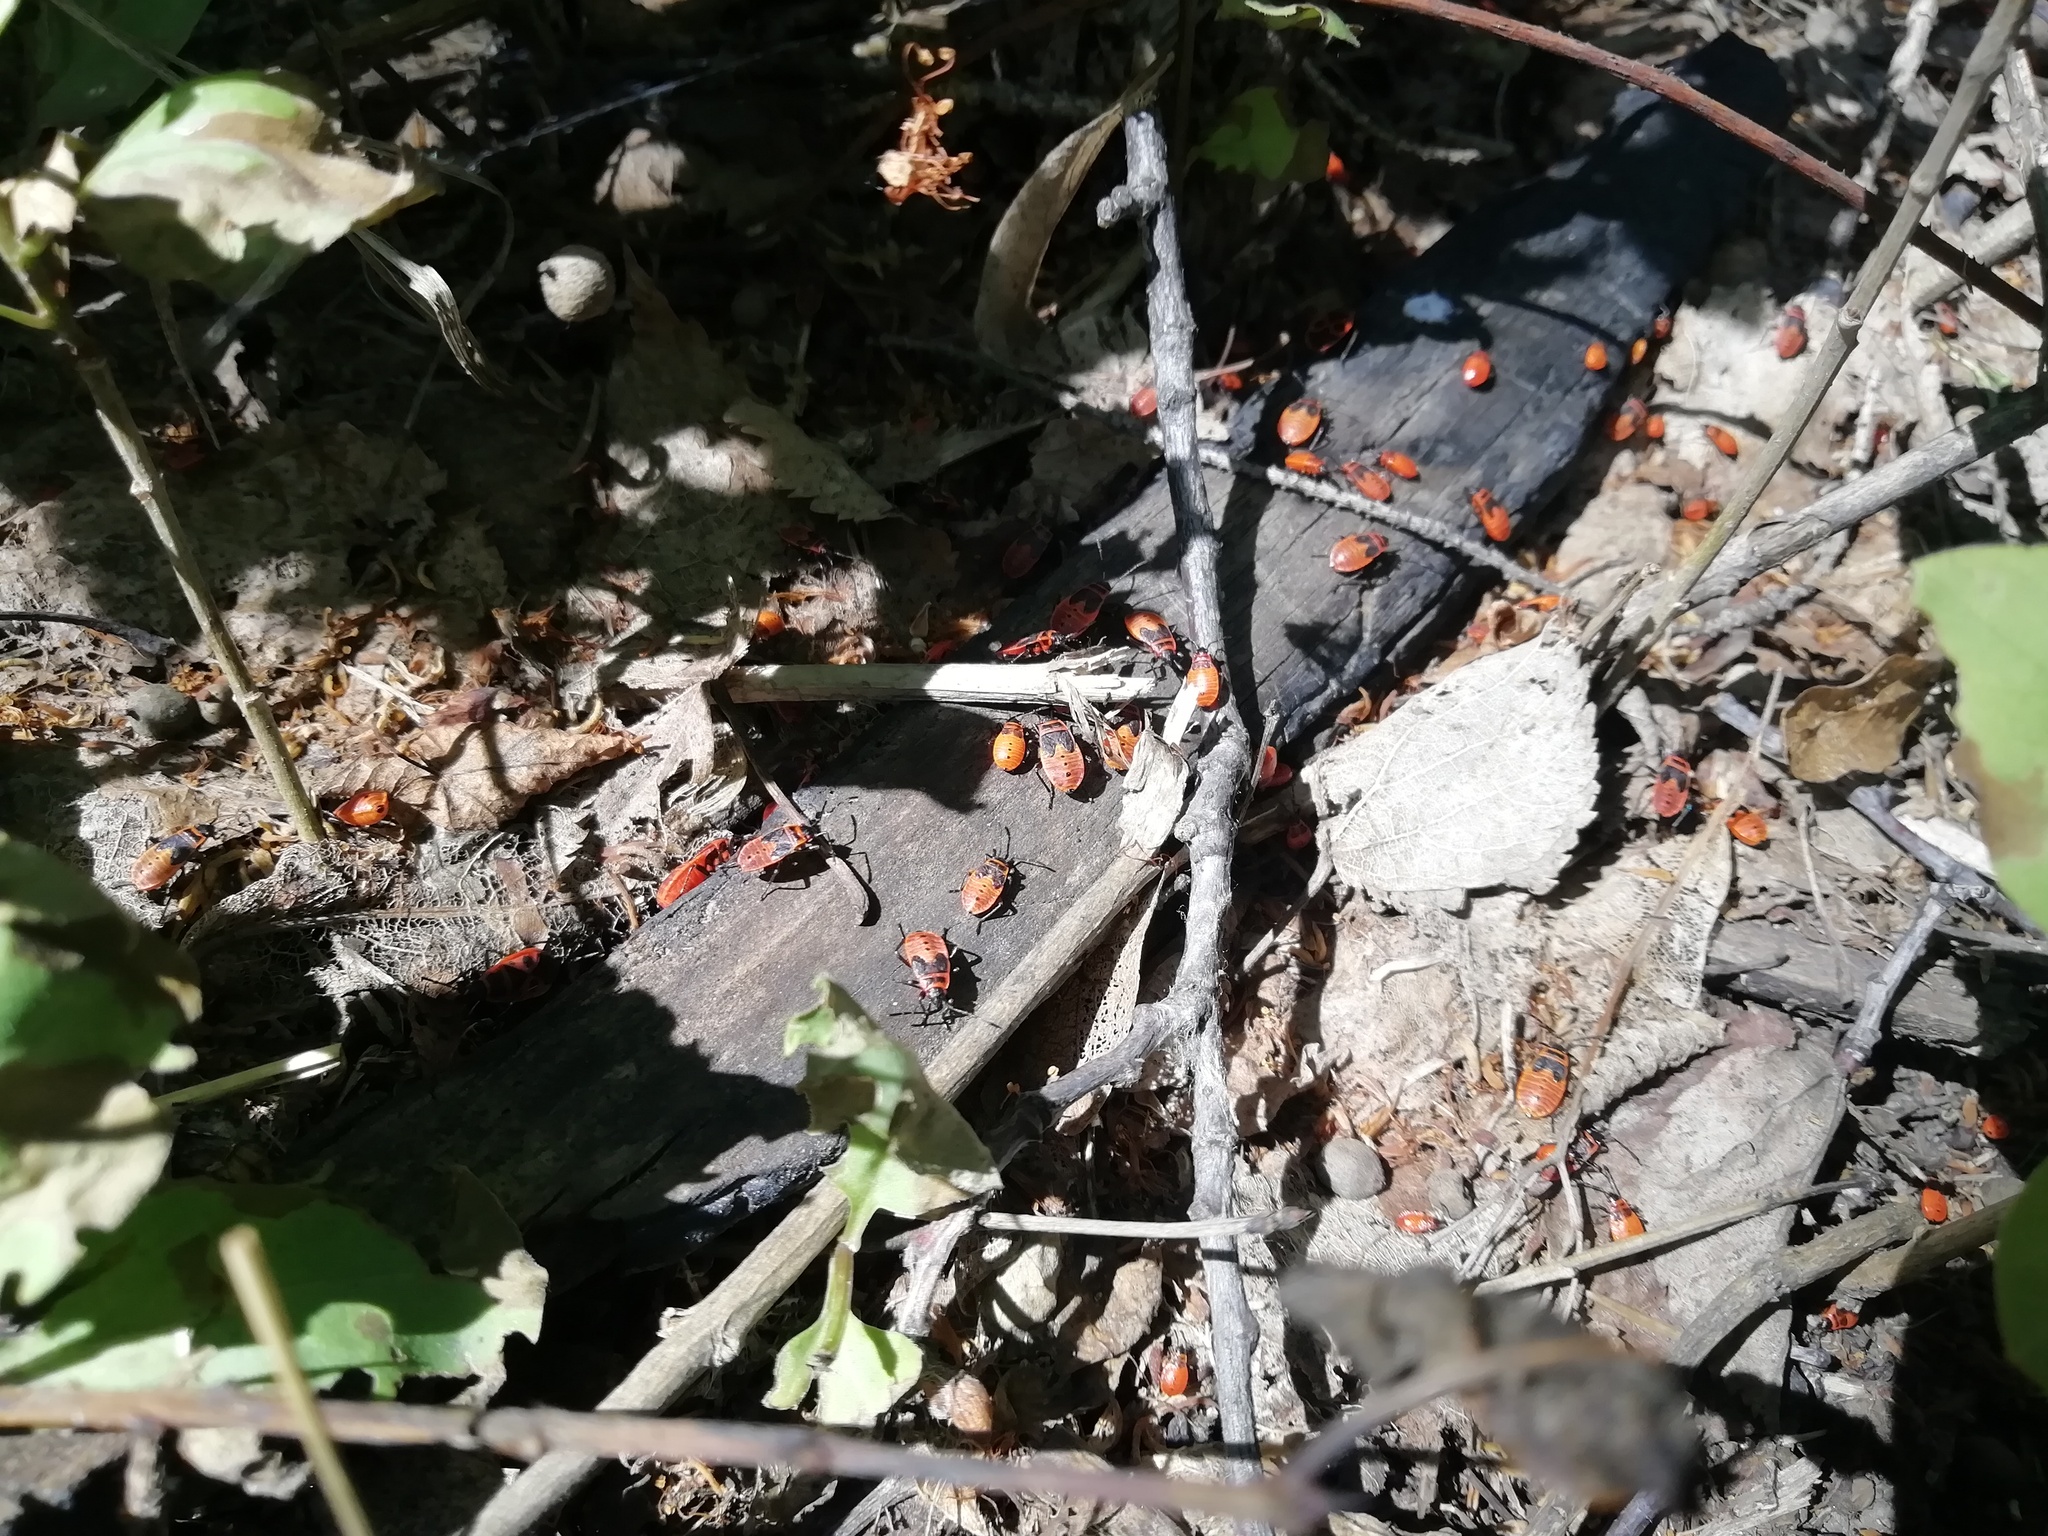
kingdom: Animalia
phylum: Arthropoda
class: Insecta
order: Hemiptera
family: Pyrrhocoridae
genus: Pyrrhocoris
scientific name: Pyrrhocoris apterus
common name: Firebug
